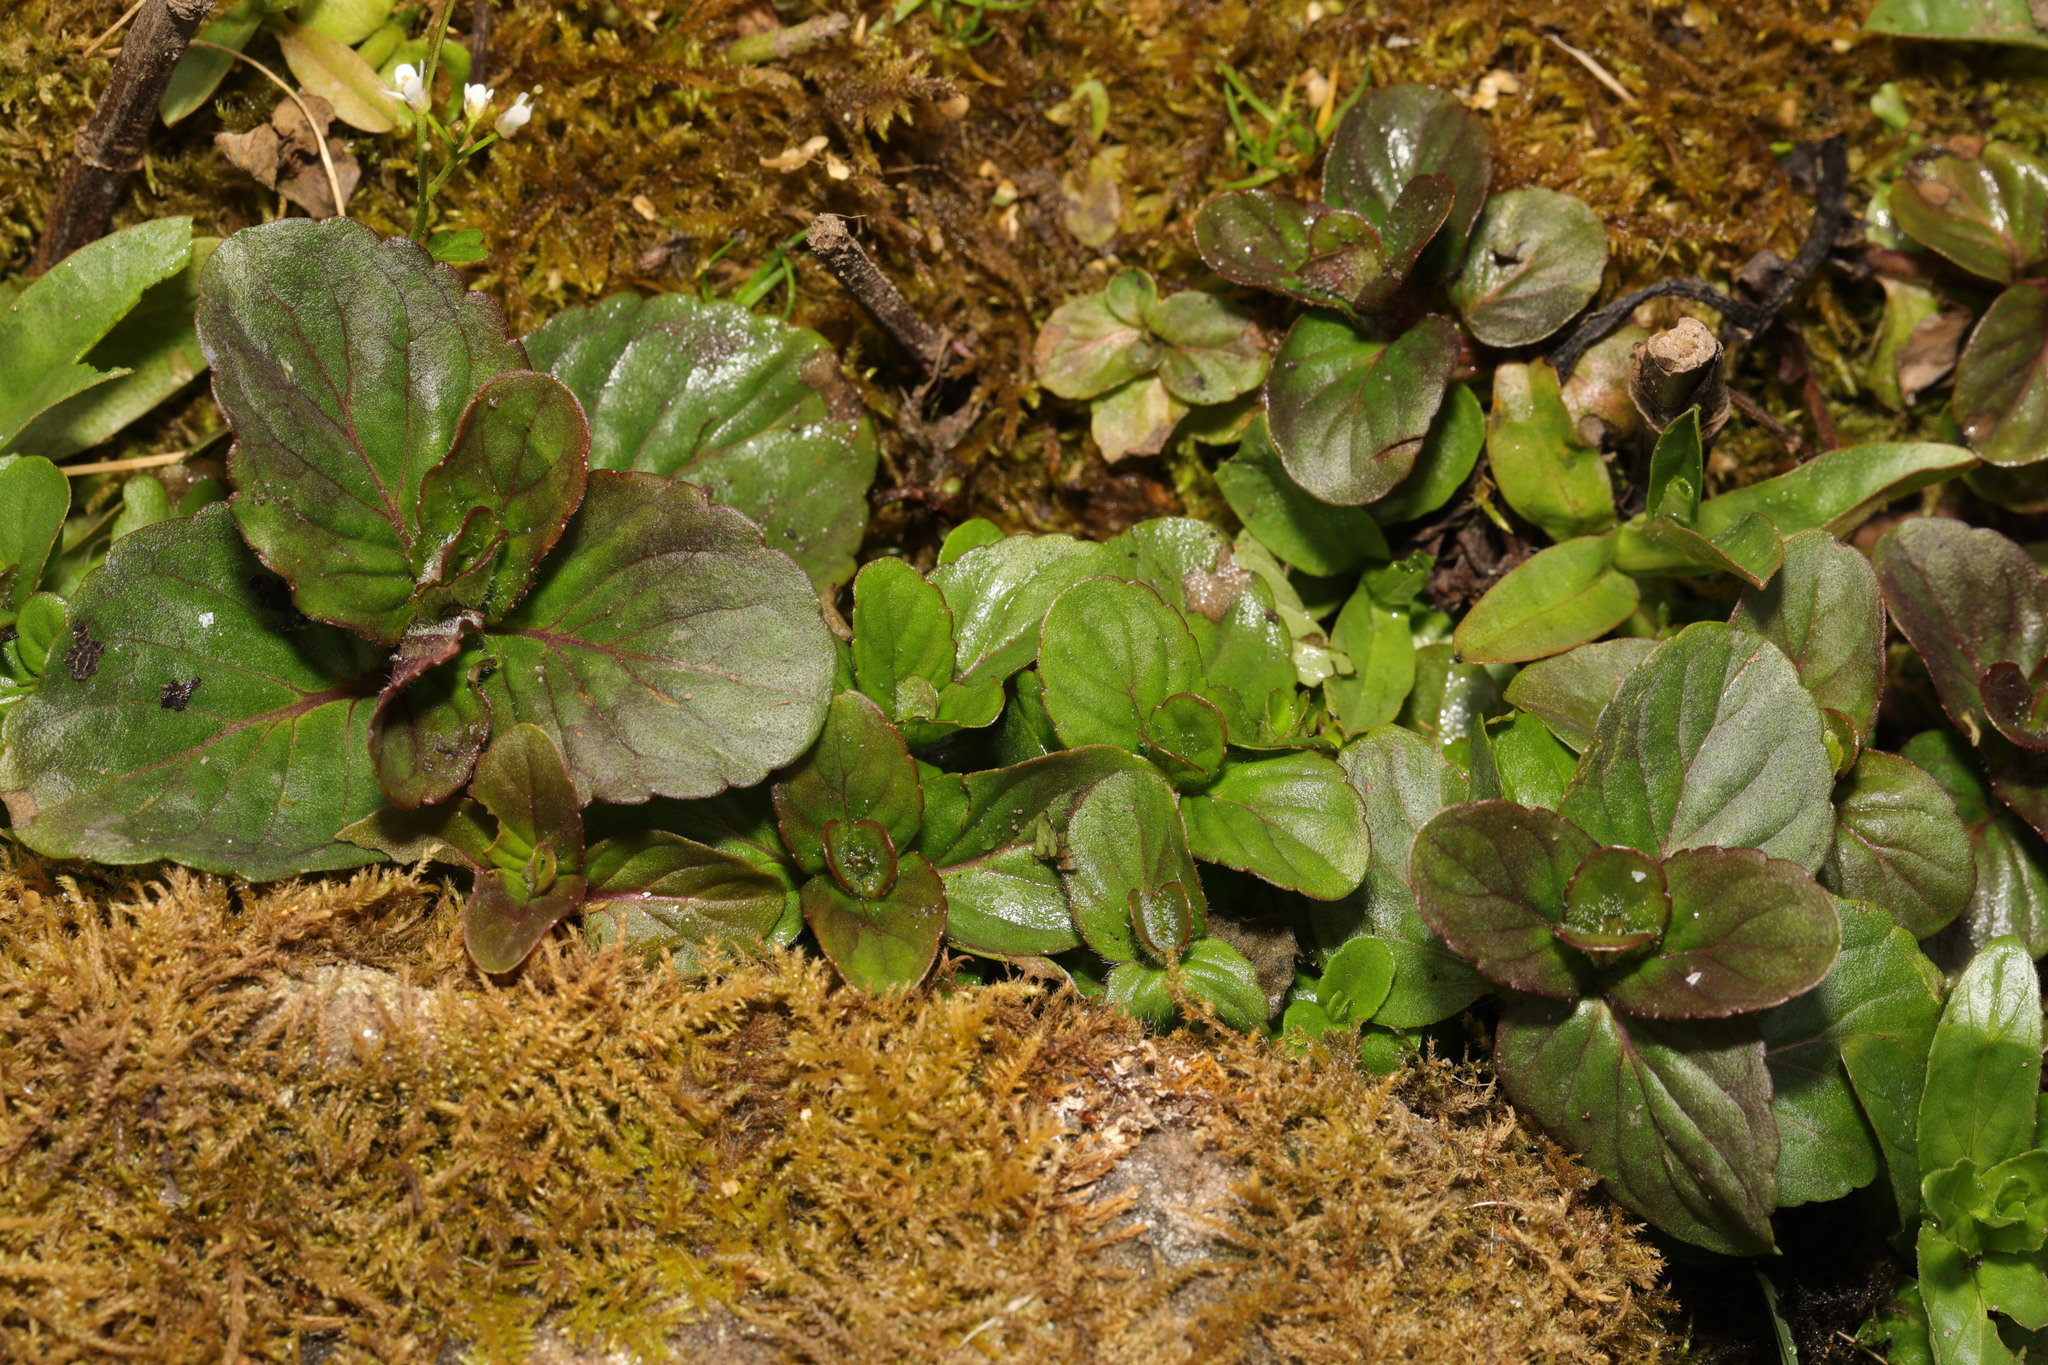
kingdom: Plantae
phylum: Tracheophyta
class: Magnoliopsida
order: Lamiales
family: Lamiaceae
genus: Mentha
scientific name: Mentha aquatica
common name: Water mint
